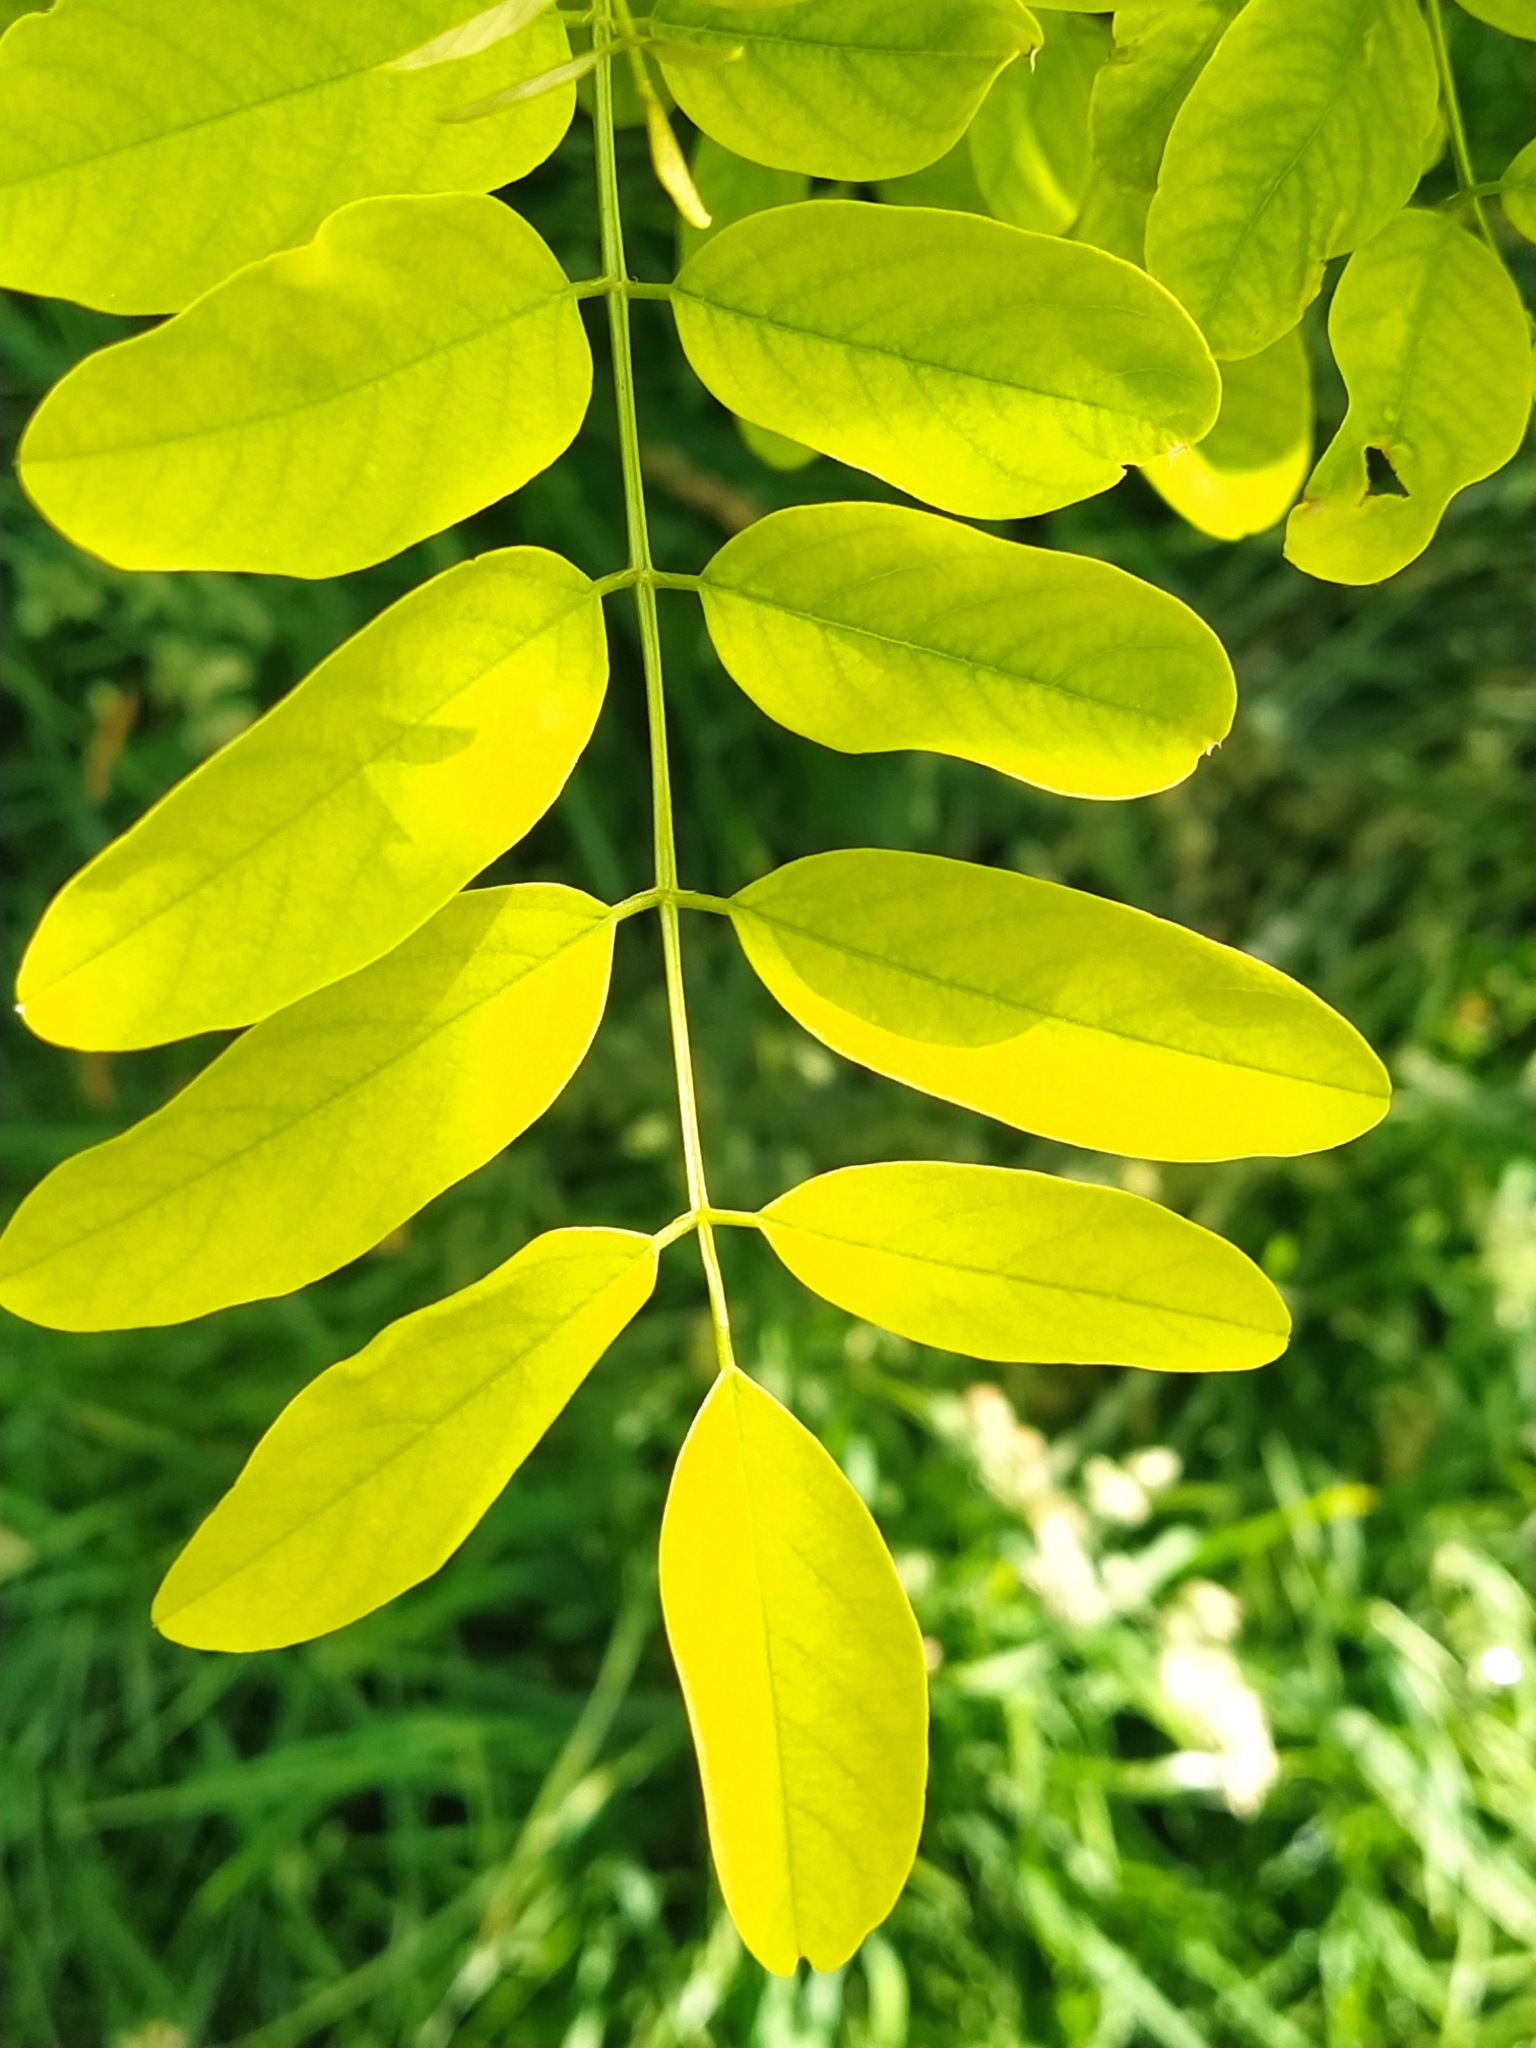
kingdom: Plantae
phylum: Tracheophyta
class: Magnoliopsida
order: Fabales
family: Fabaceae
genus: Robinia
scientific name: Robinia pseudoacacia
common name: Black locust
